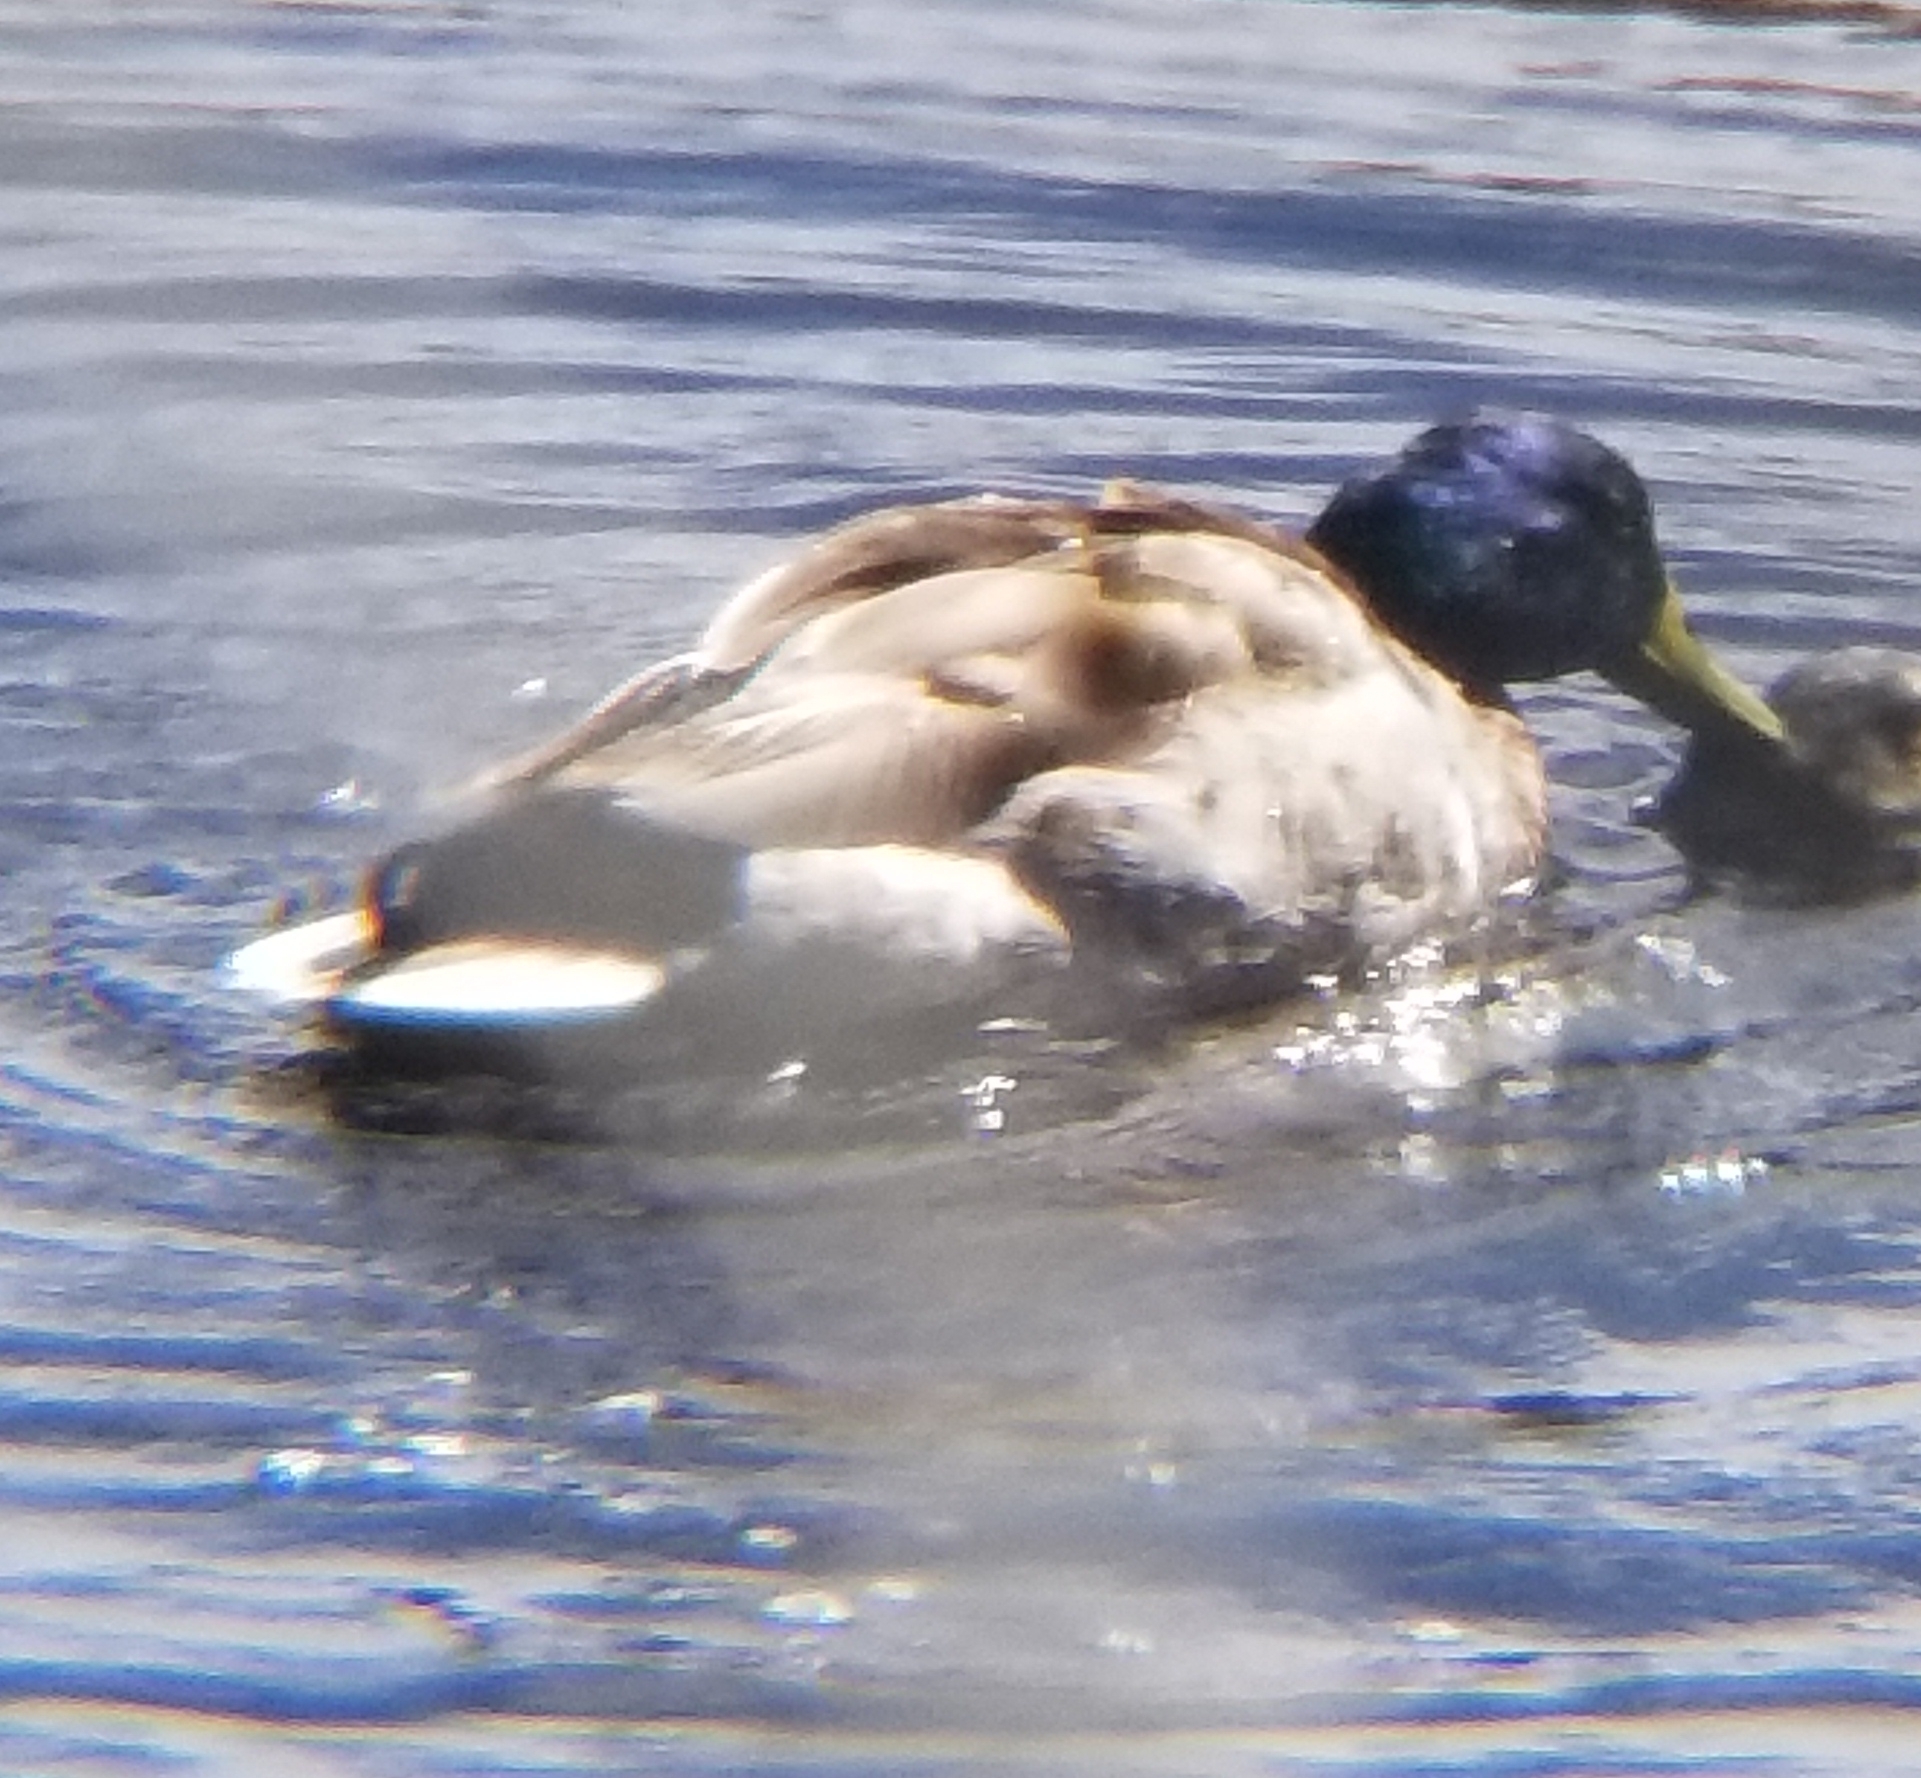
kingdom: Animalia
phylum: Chordata
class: Aves
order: Anseriformes
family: Anatidae
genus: Anas
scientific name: Anas platyrhynchos
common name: Mallard
